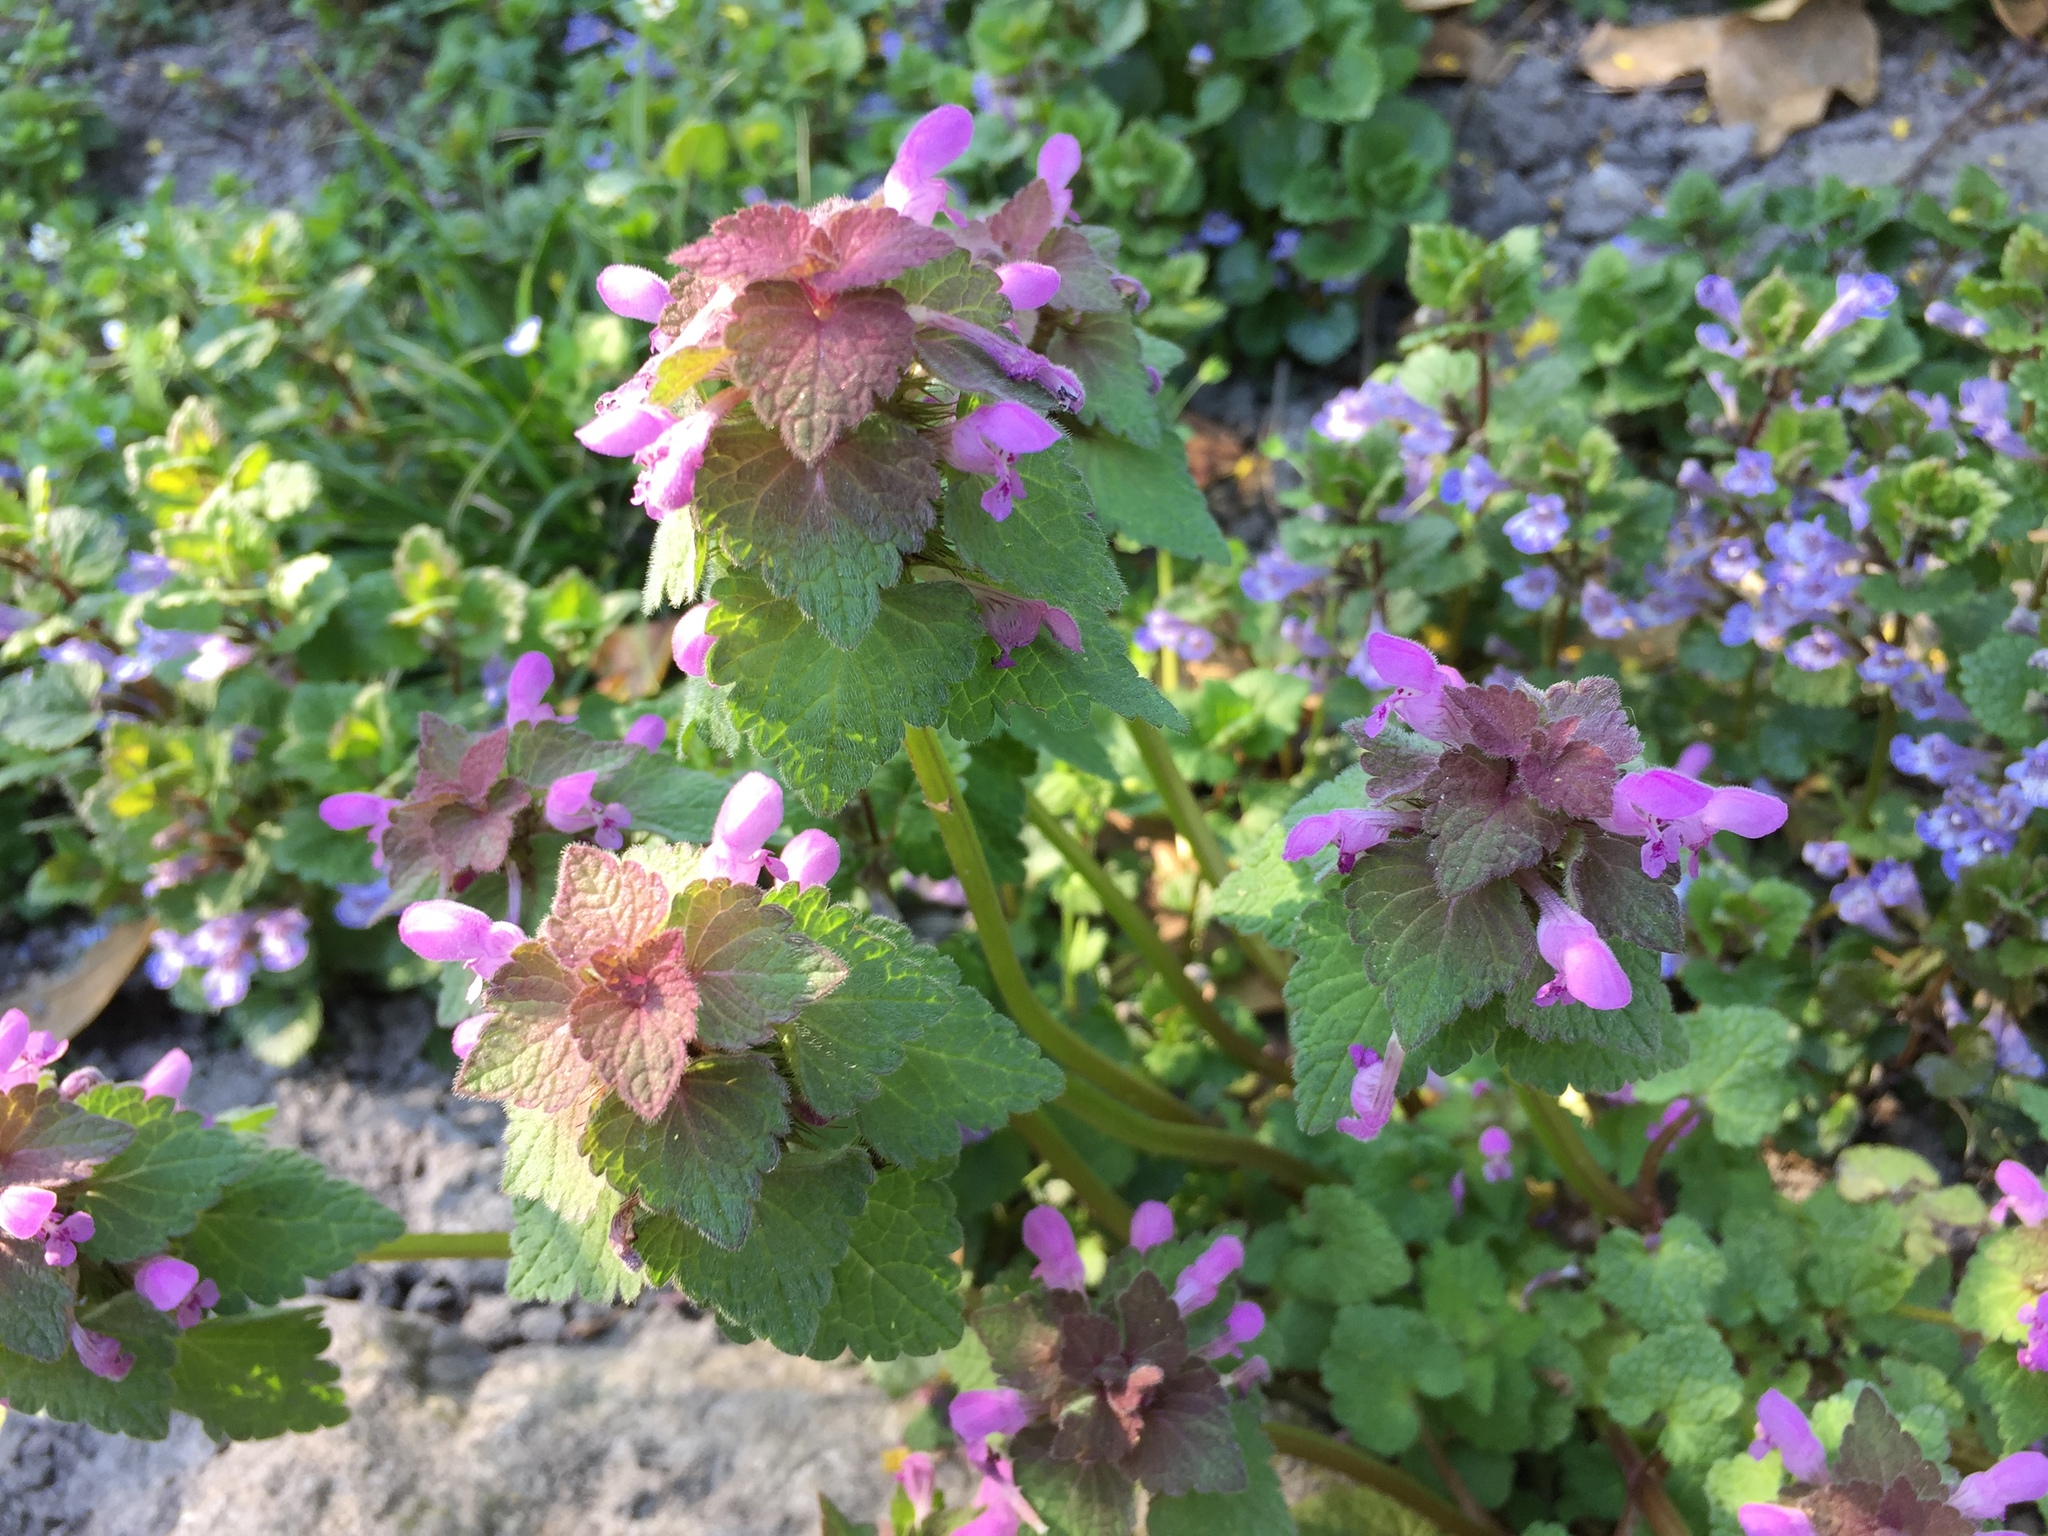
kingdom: Plantae
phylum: Tracheophyta
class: Magnoliopsida
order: Lamiales
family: Lamiaceae
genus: Lamium
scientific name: Lamium purpureum
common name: Red dead-nettle
